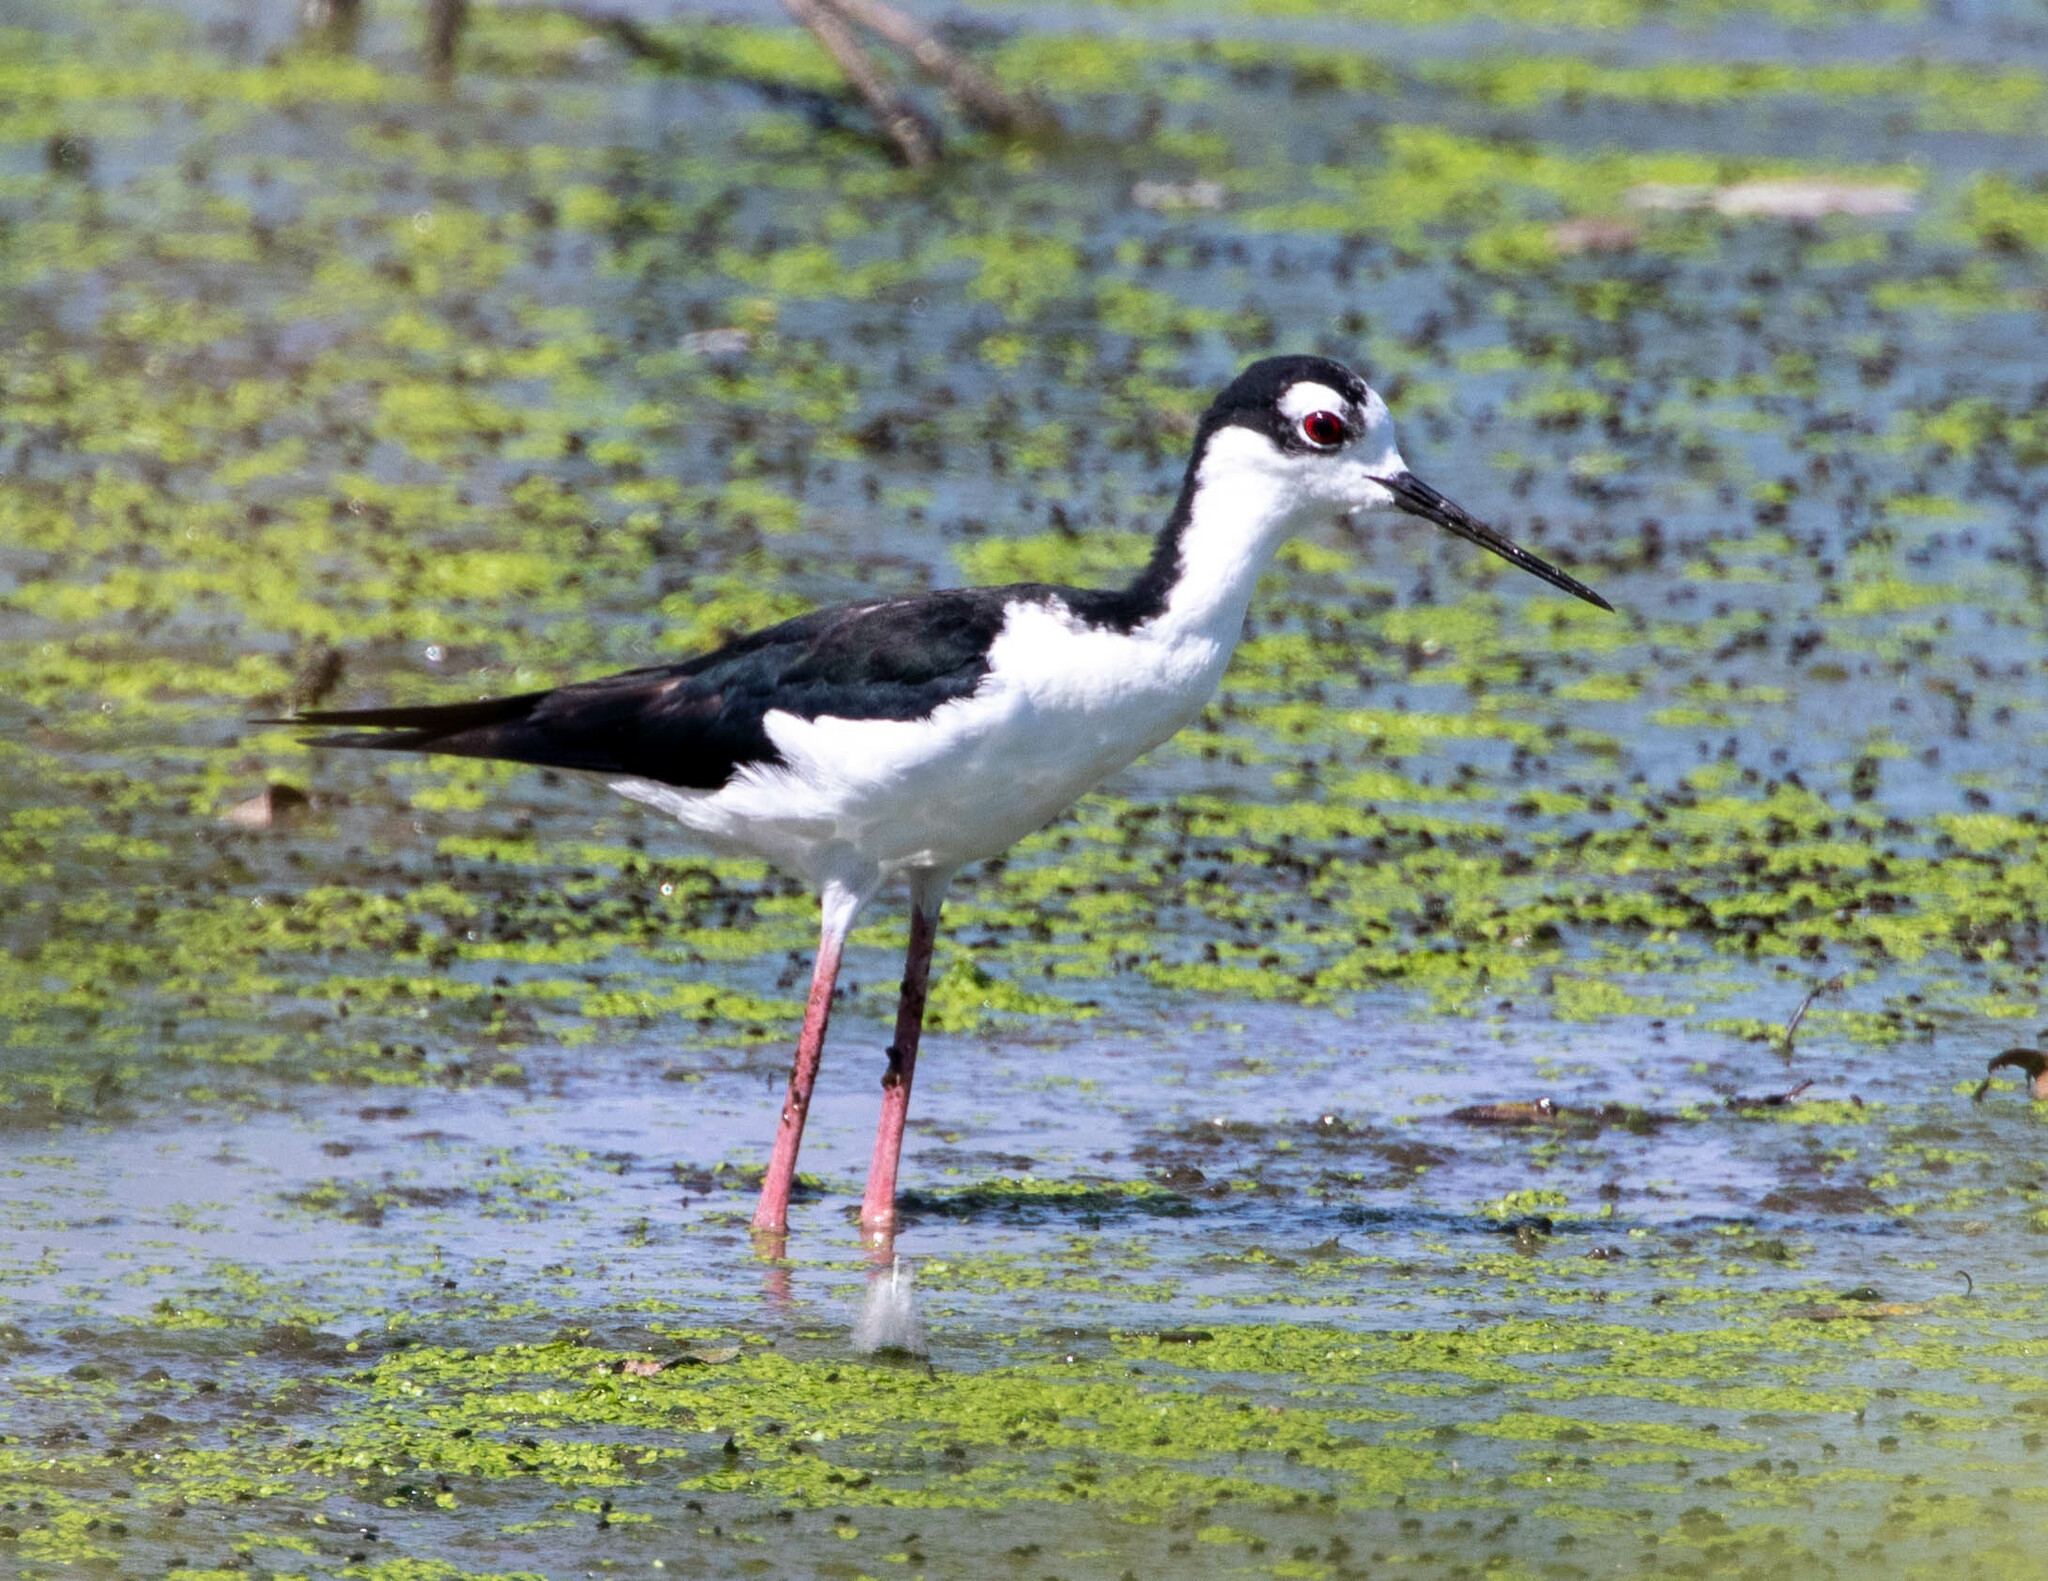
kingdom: Animalia
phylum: Chordata
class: Aves
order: Charadriiformes
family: Recurvirostridae
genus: Himantopus
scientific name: Himantopus mexicanus
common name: Black-necked stilt
